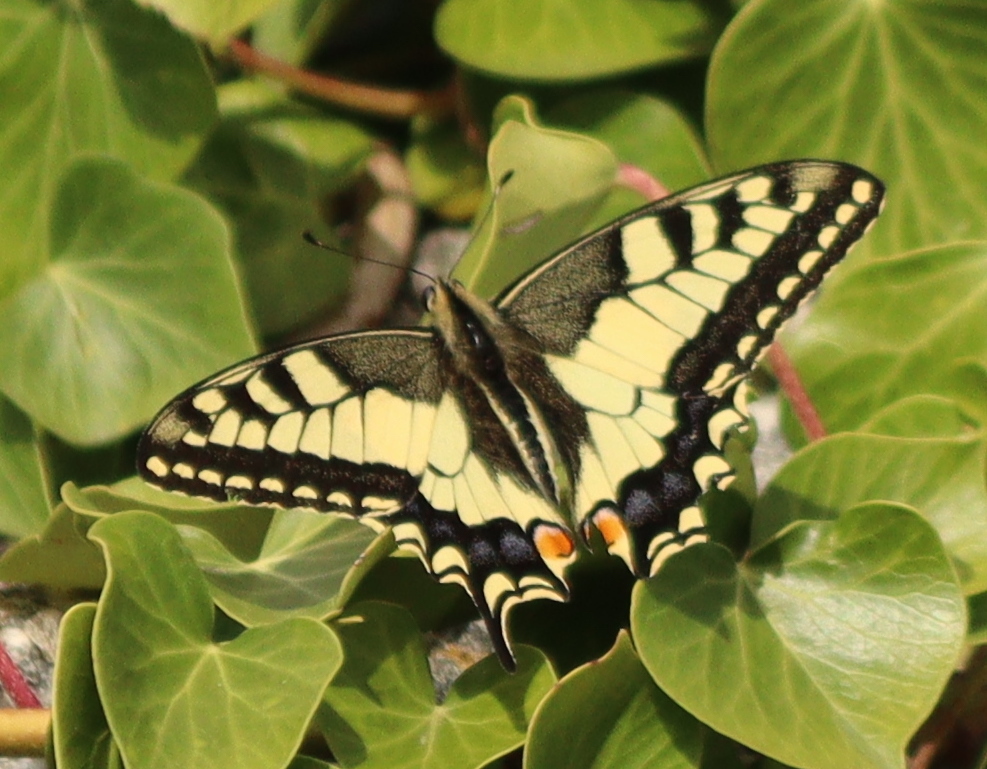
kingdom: Animalia
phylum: Arthropoda
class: Insecta
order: Lepidoptera
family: Papilionidae
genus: Papilio
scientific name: Papilio machaon
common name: Swallowtail
